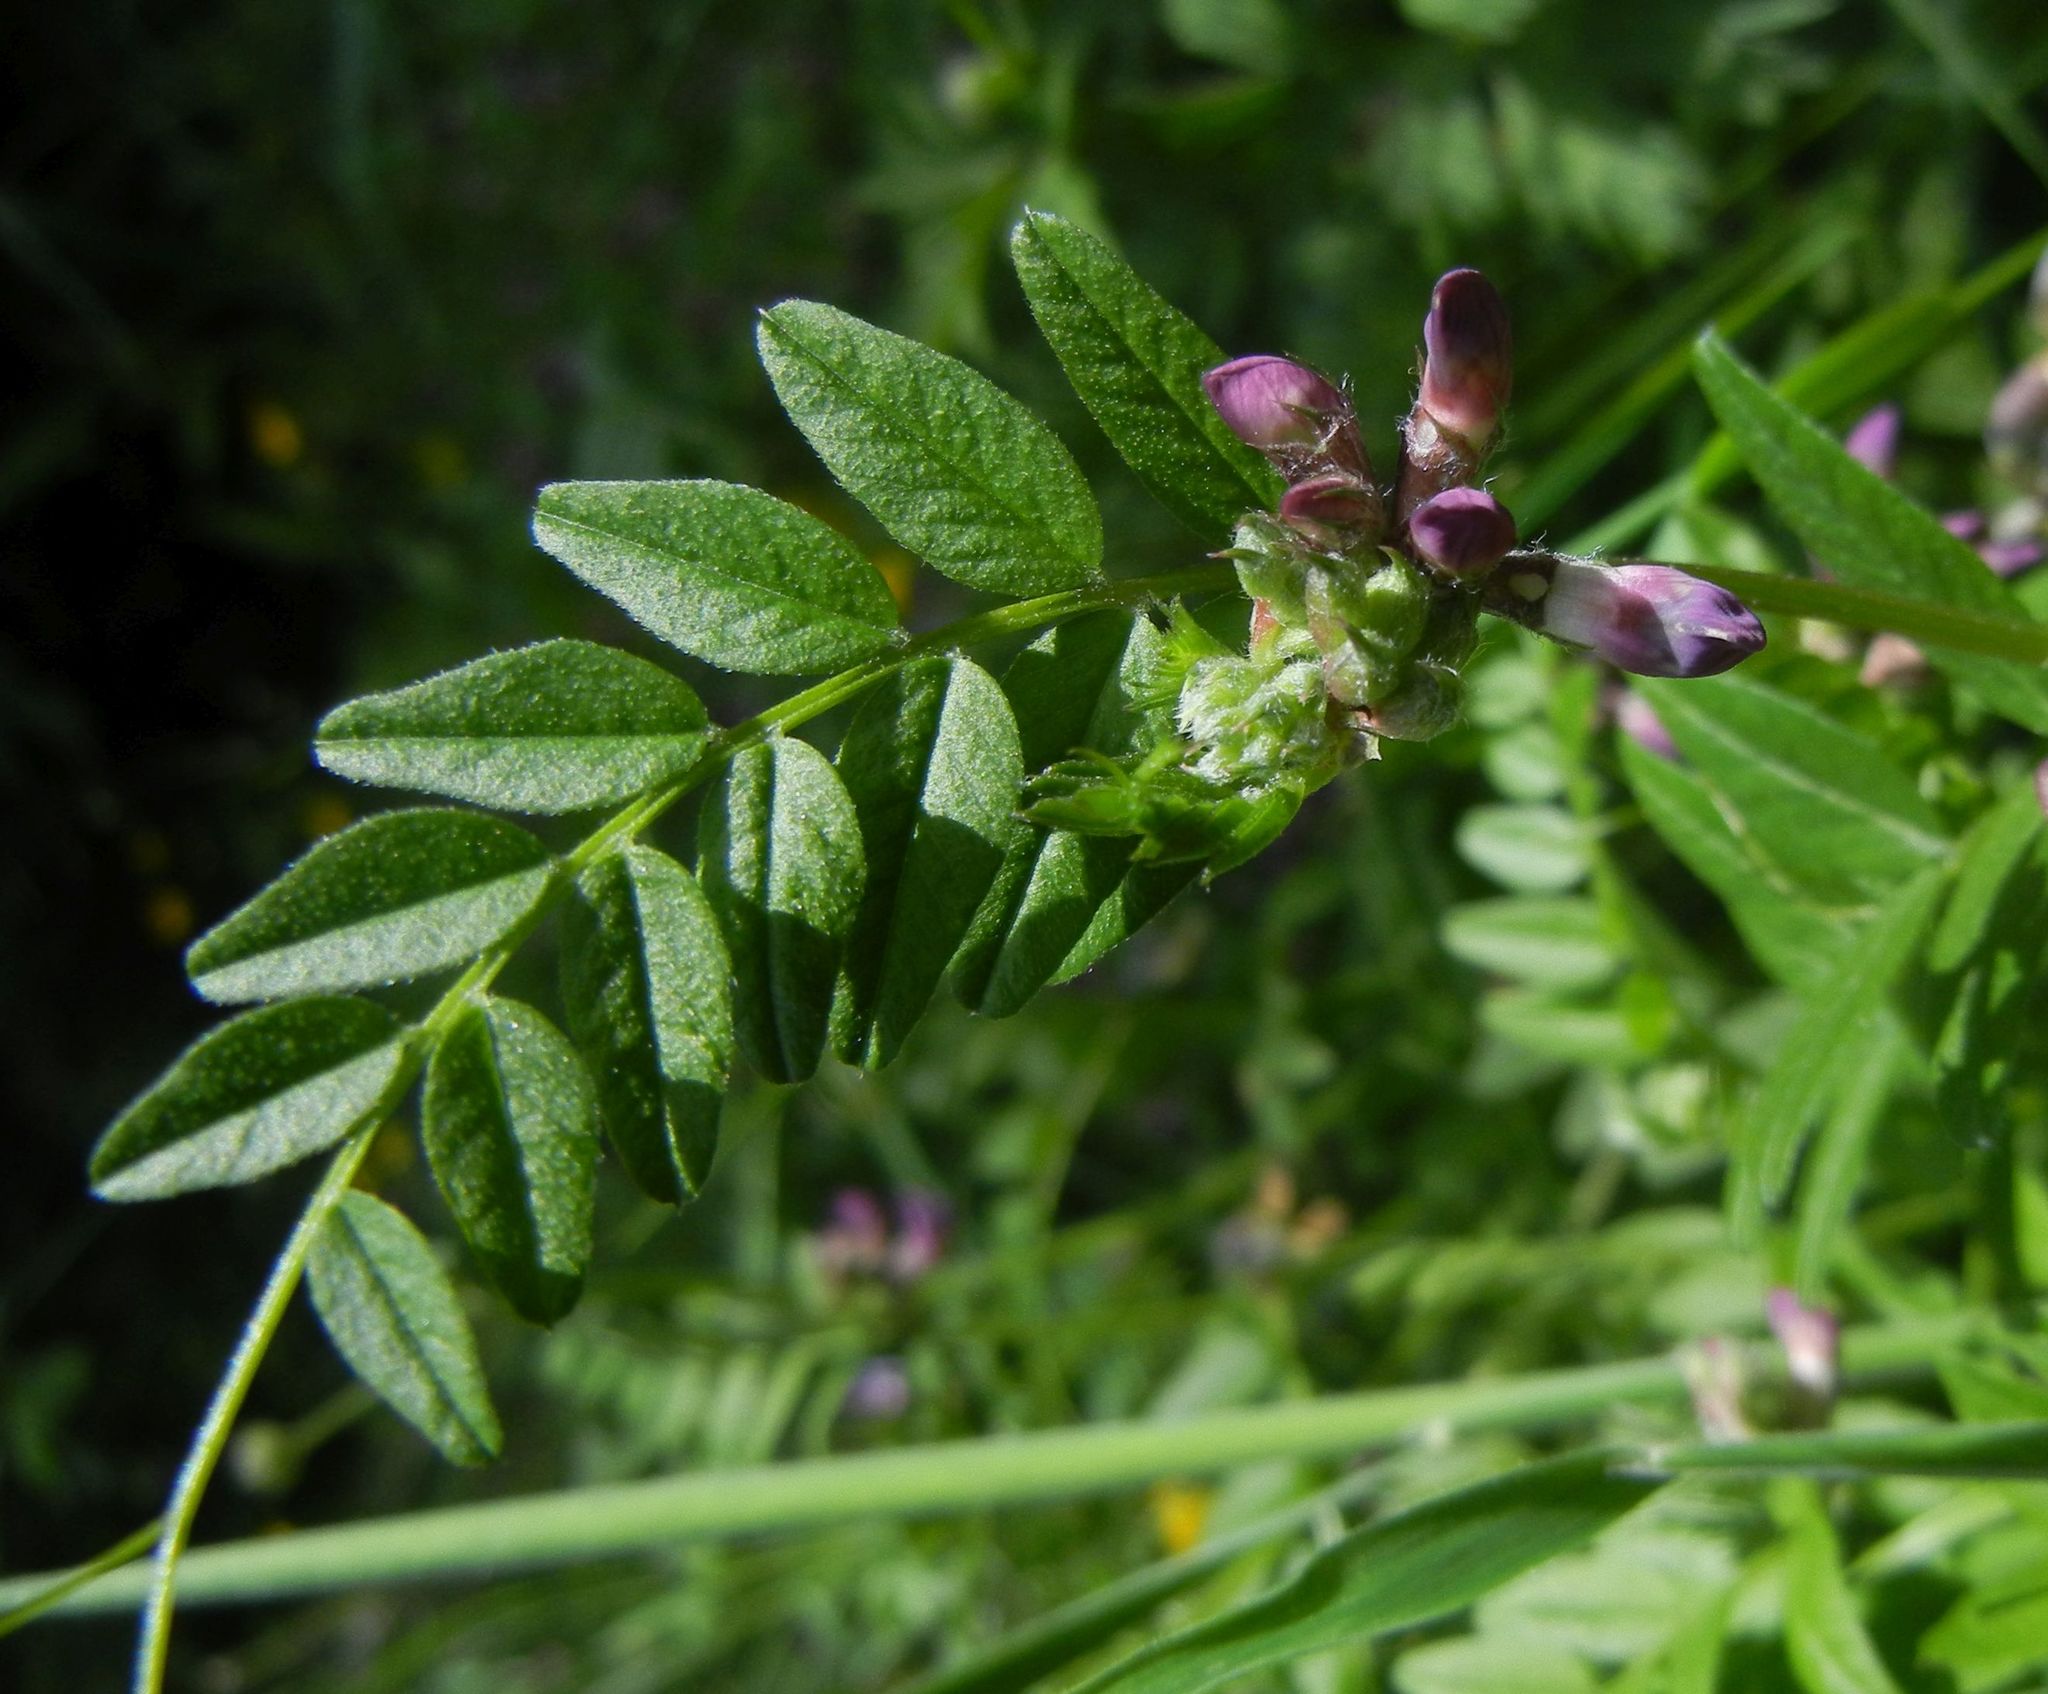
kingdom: Plantae
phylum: Tracheophyta
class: Magnoliopsida
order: Fabales
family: Fabaceae
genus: Vicia
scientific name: Vicia sepium
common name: Bush vetch
